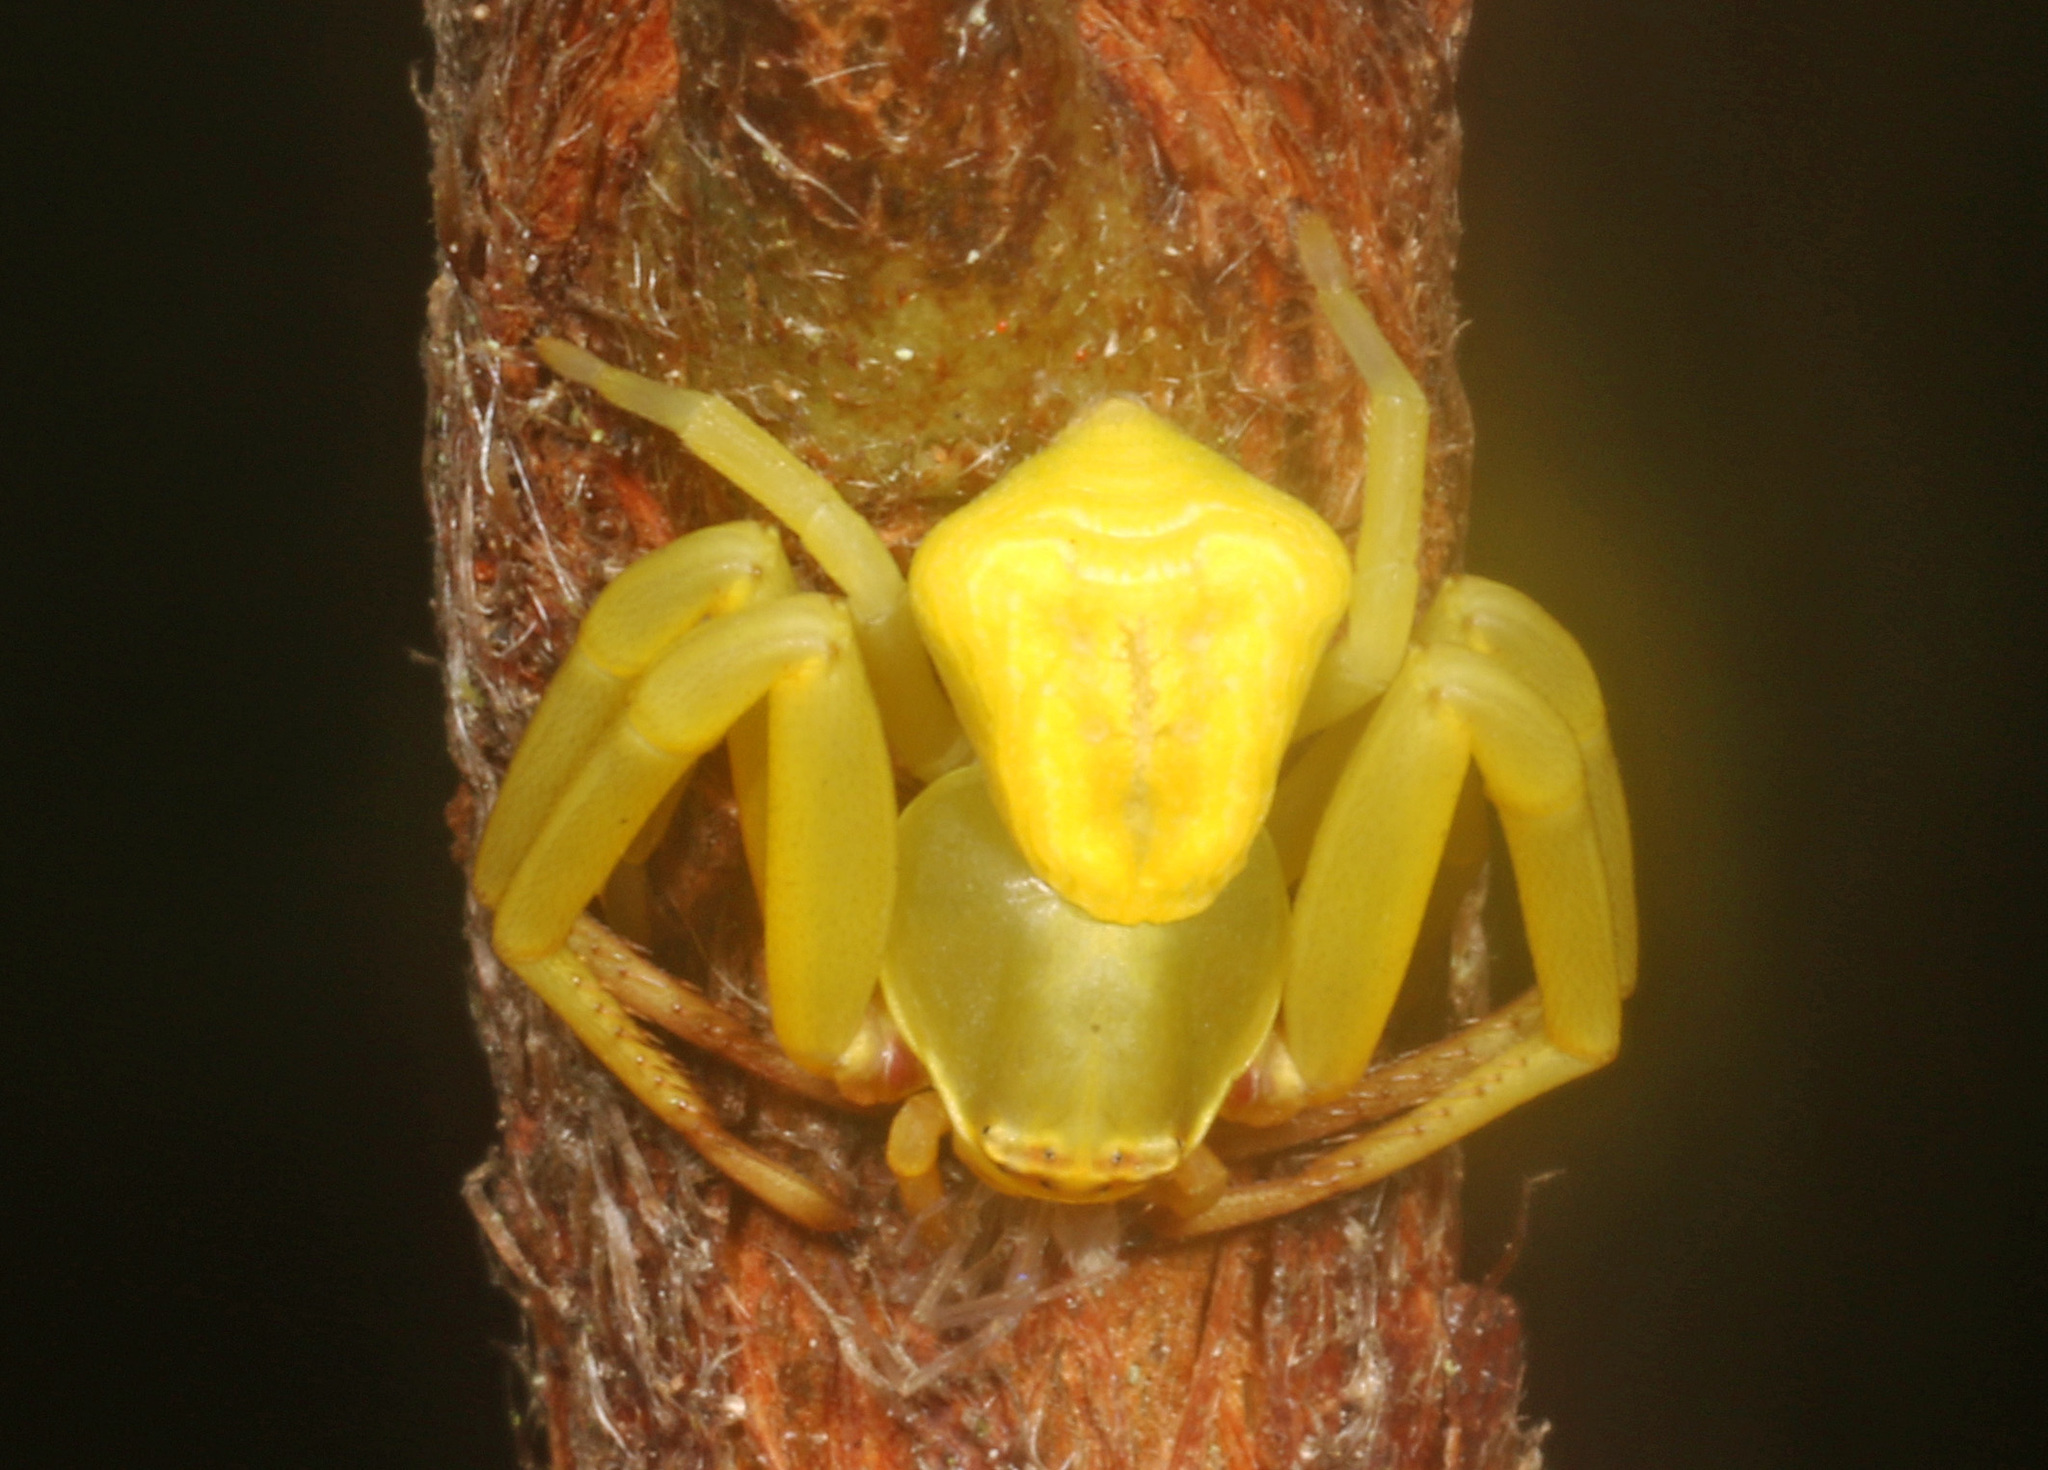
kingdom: Animalia
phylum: Arthropoda
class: Arachnida
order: Araneae
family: Thomisidae
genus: Misumenoides
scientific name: Misumenoides formosipes
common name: White-banded crab spider
